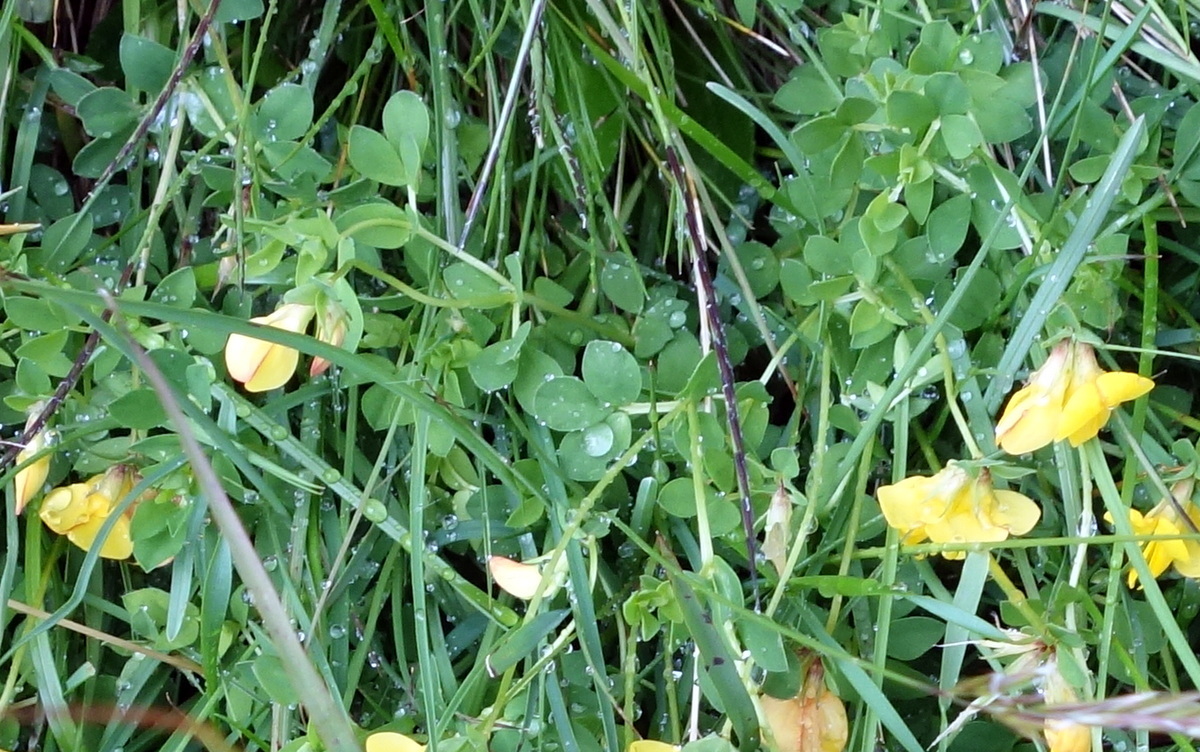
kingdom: Plantae
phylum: Tracheophyta
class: Magnoliopsida
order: Fabales
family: Fabaceae
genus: Lotus
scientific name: Lotus alpinus
